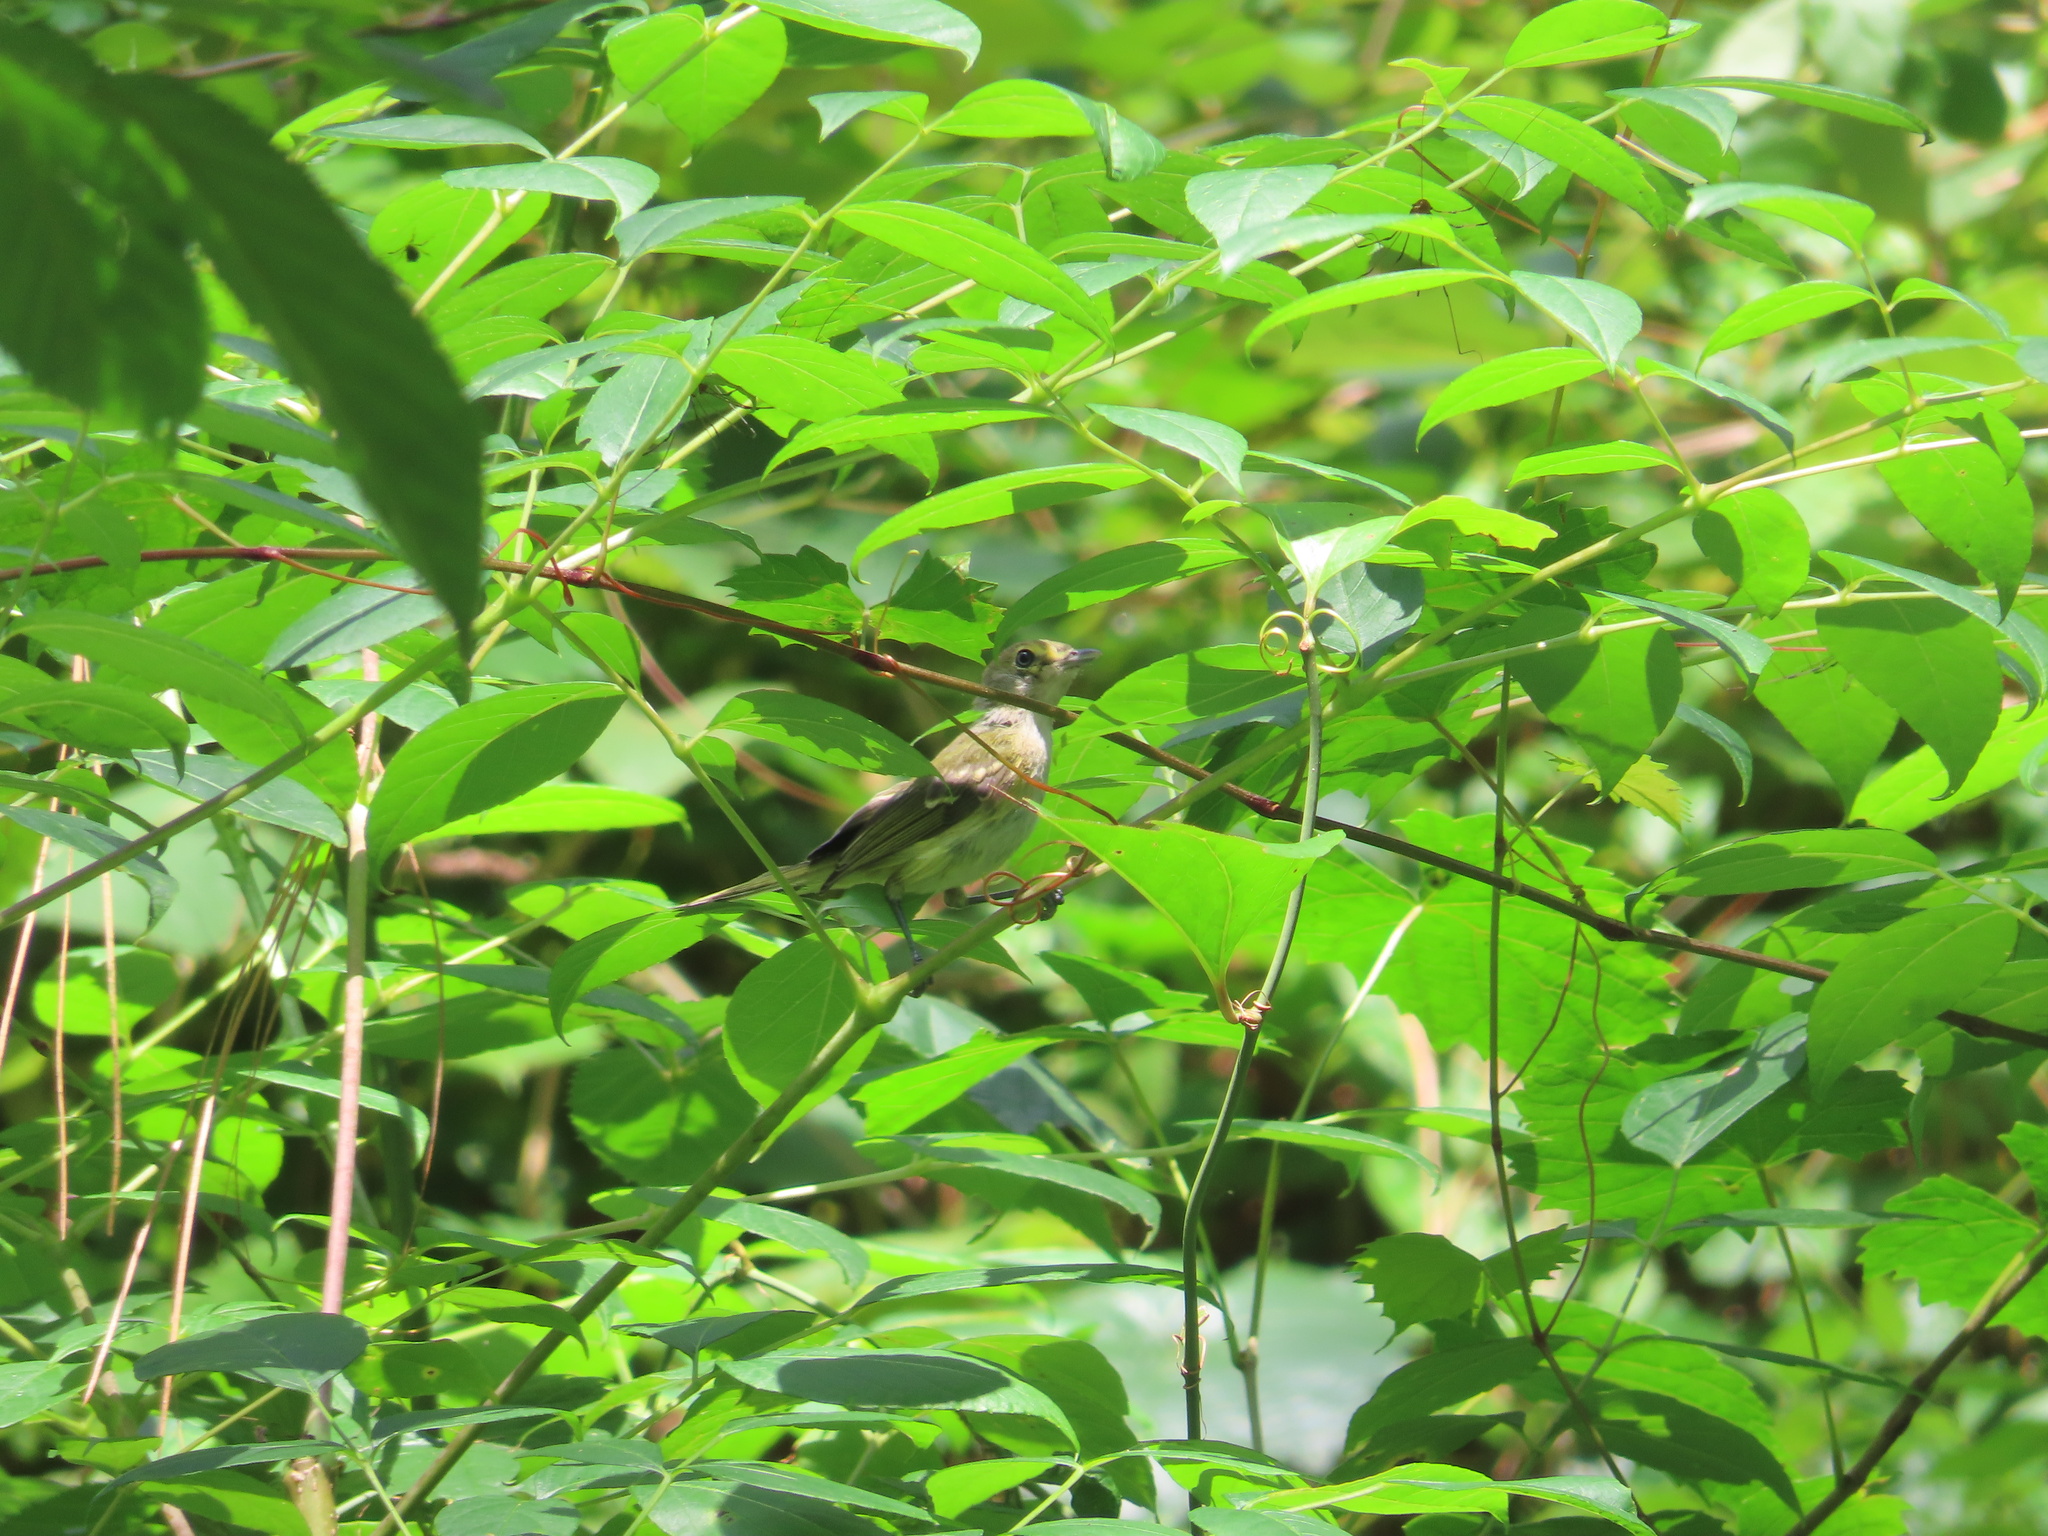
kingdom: Animalia
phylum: Chordata
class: Aves
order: Passeriformes
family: Vireonidae
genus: Vireo
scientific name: Vireo griseus
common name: White-eyed vireo
